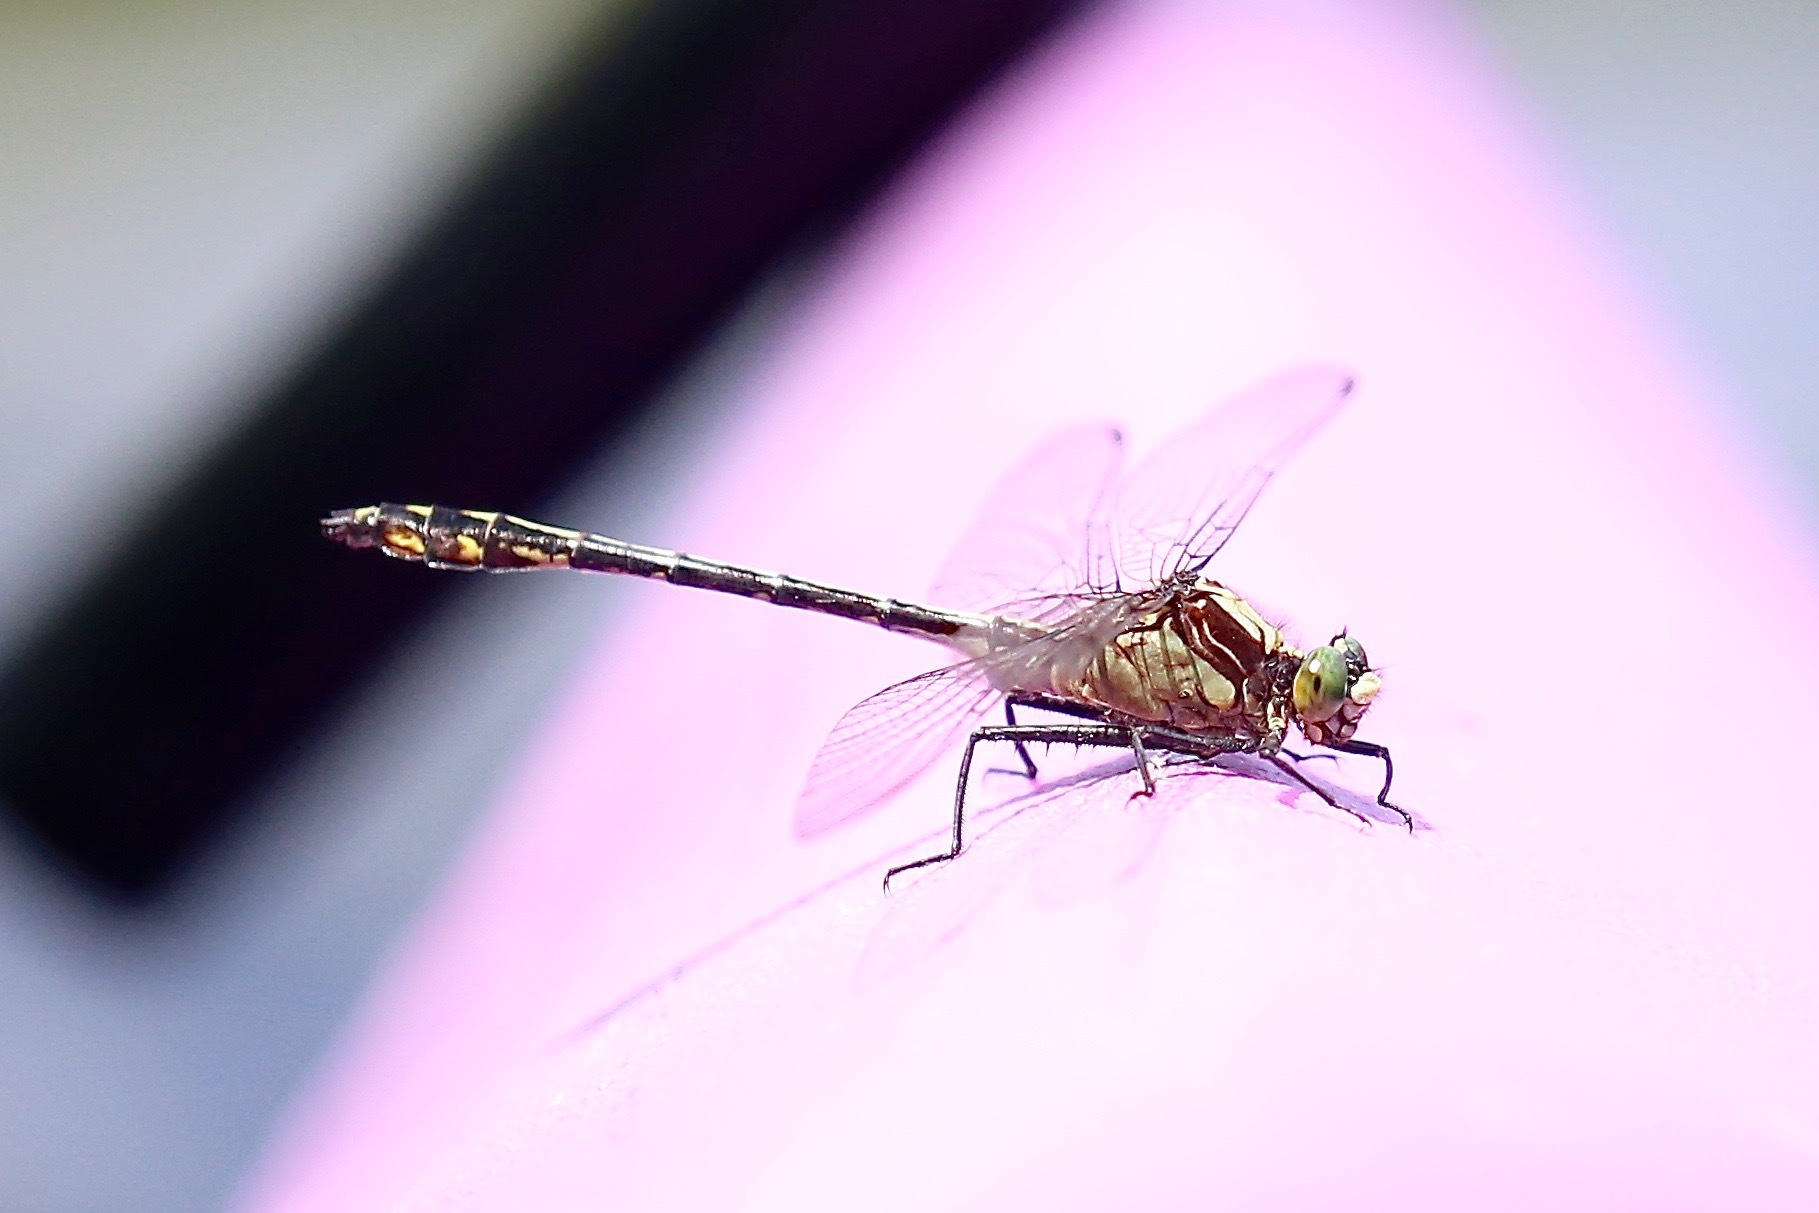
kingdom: Animalia
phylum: Arthropoda
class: Insecta
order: Odonata
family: Gomphidae
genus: Dromogomphus
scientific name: Dromogomphus spinosus
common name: Black-shouldered spinyleg
